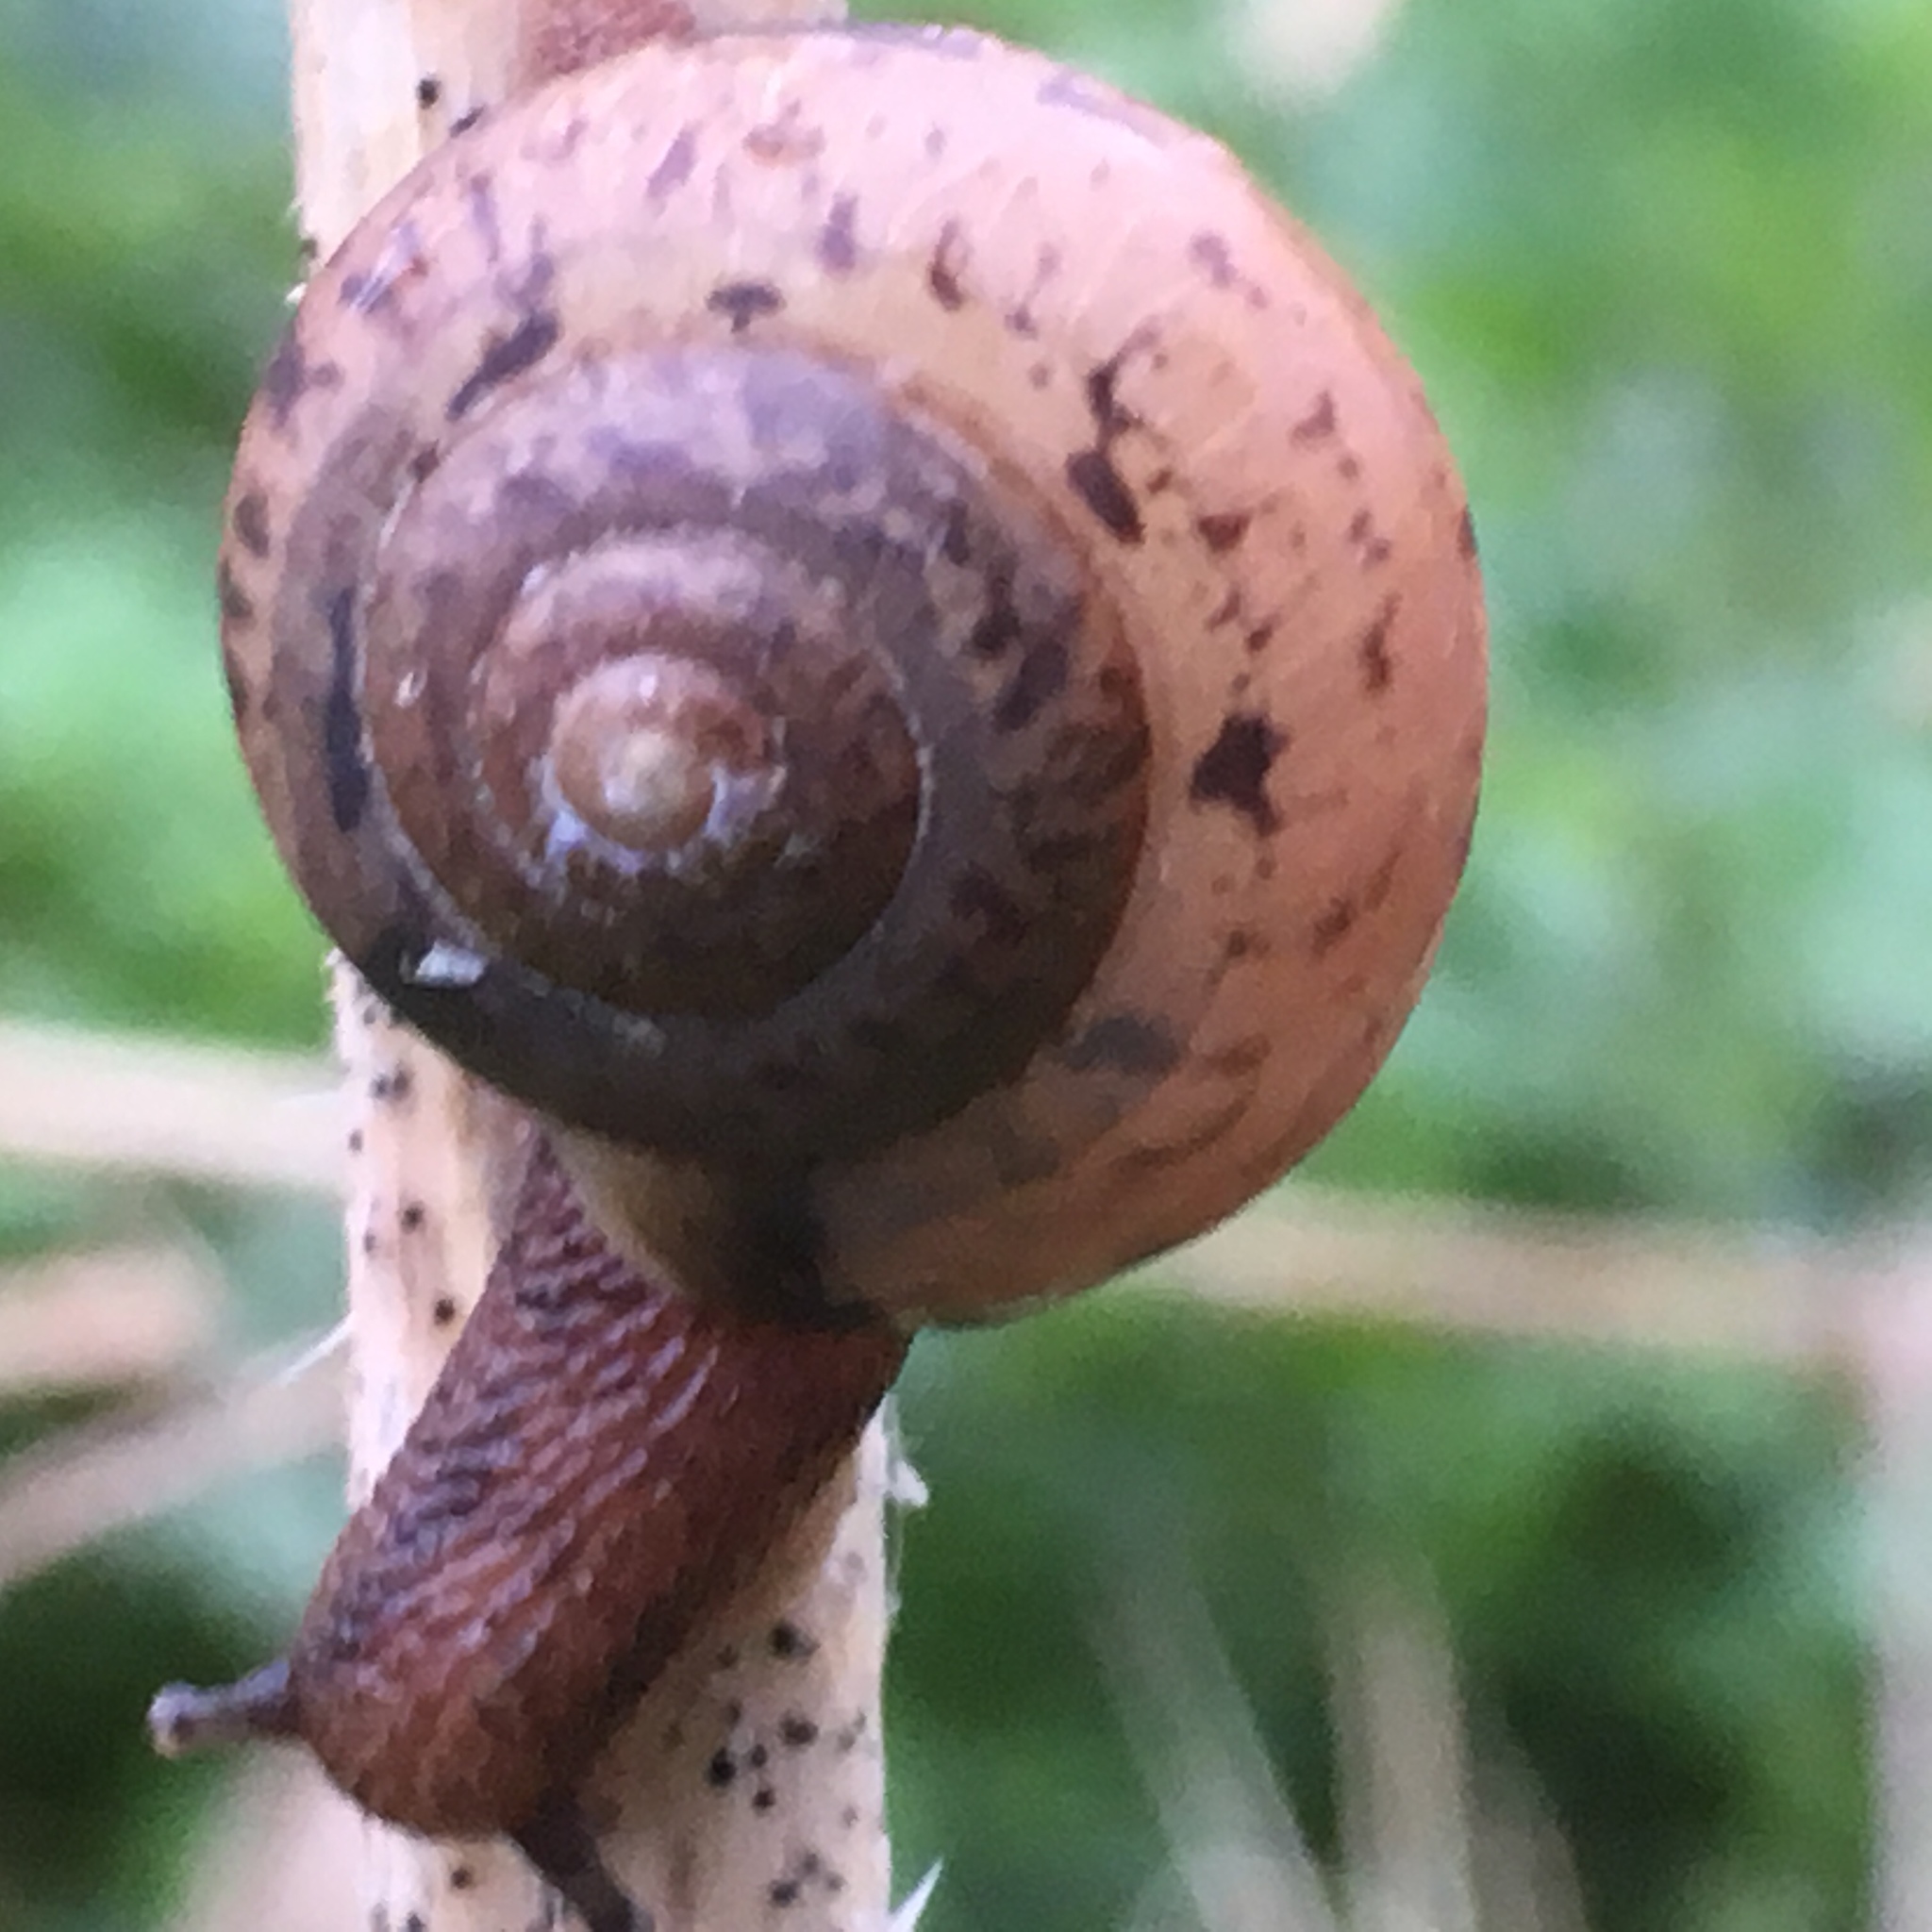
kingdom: Animalia
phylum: Mollusca
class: Gastropoda
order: Stylommatophora
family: Camaenidae
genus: Fruticicola
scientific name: Fruticicola fruticum
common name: Bush snail
